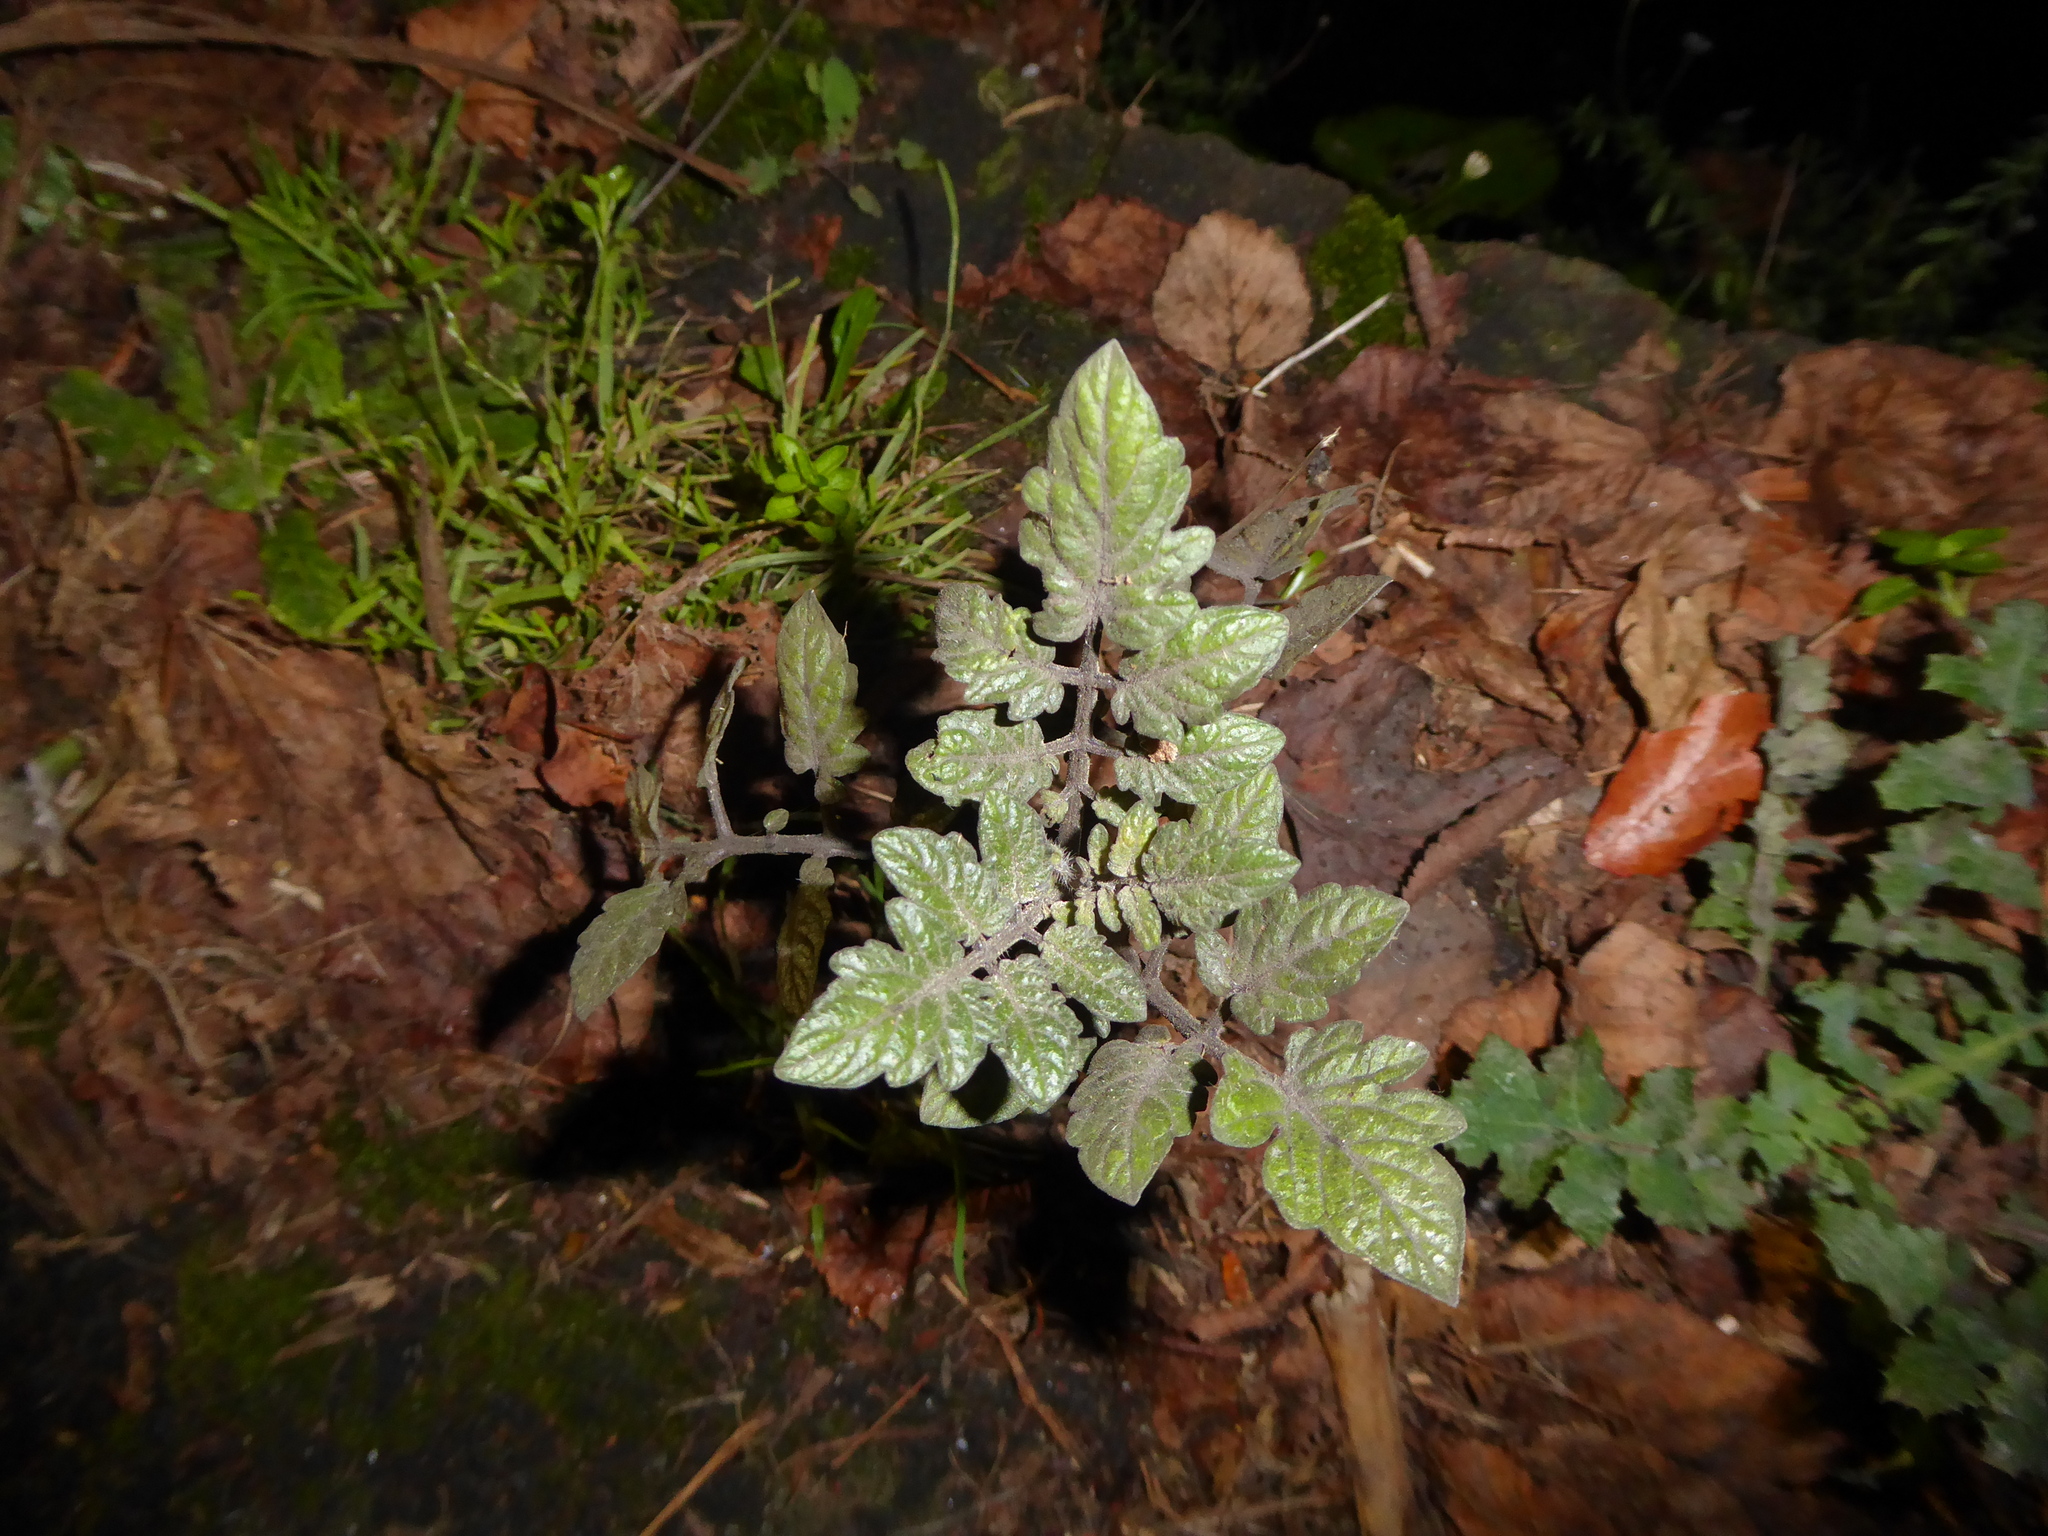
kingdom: Plantae
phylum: Tracheophyta
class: Magnoliopsida
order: Solanales
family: Solanaceae
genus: Solanum
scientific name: Solanum lycopersicum
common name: Garden tomato
